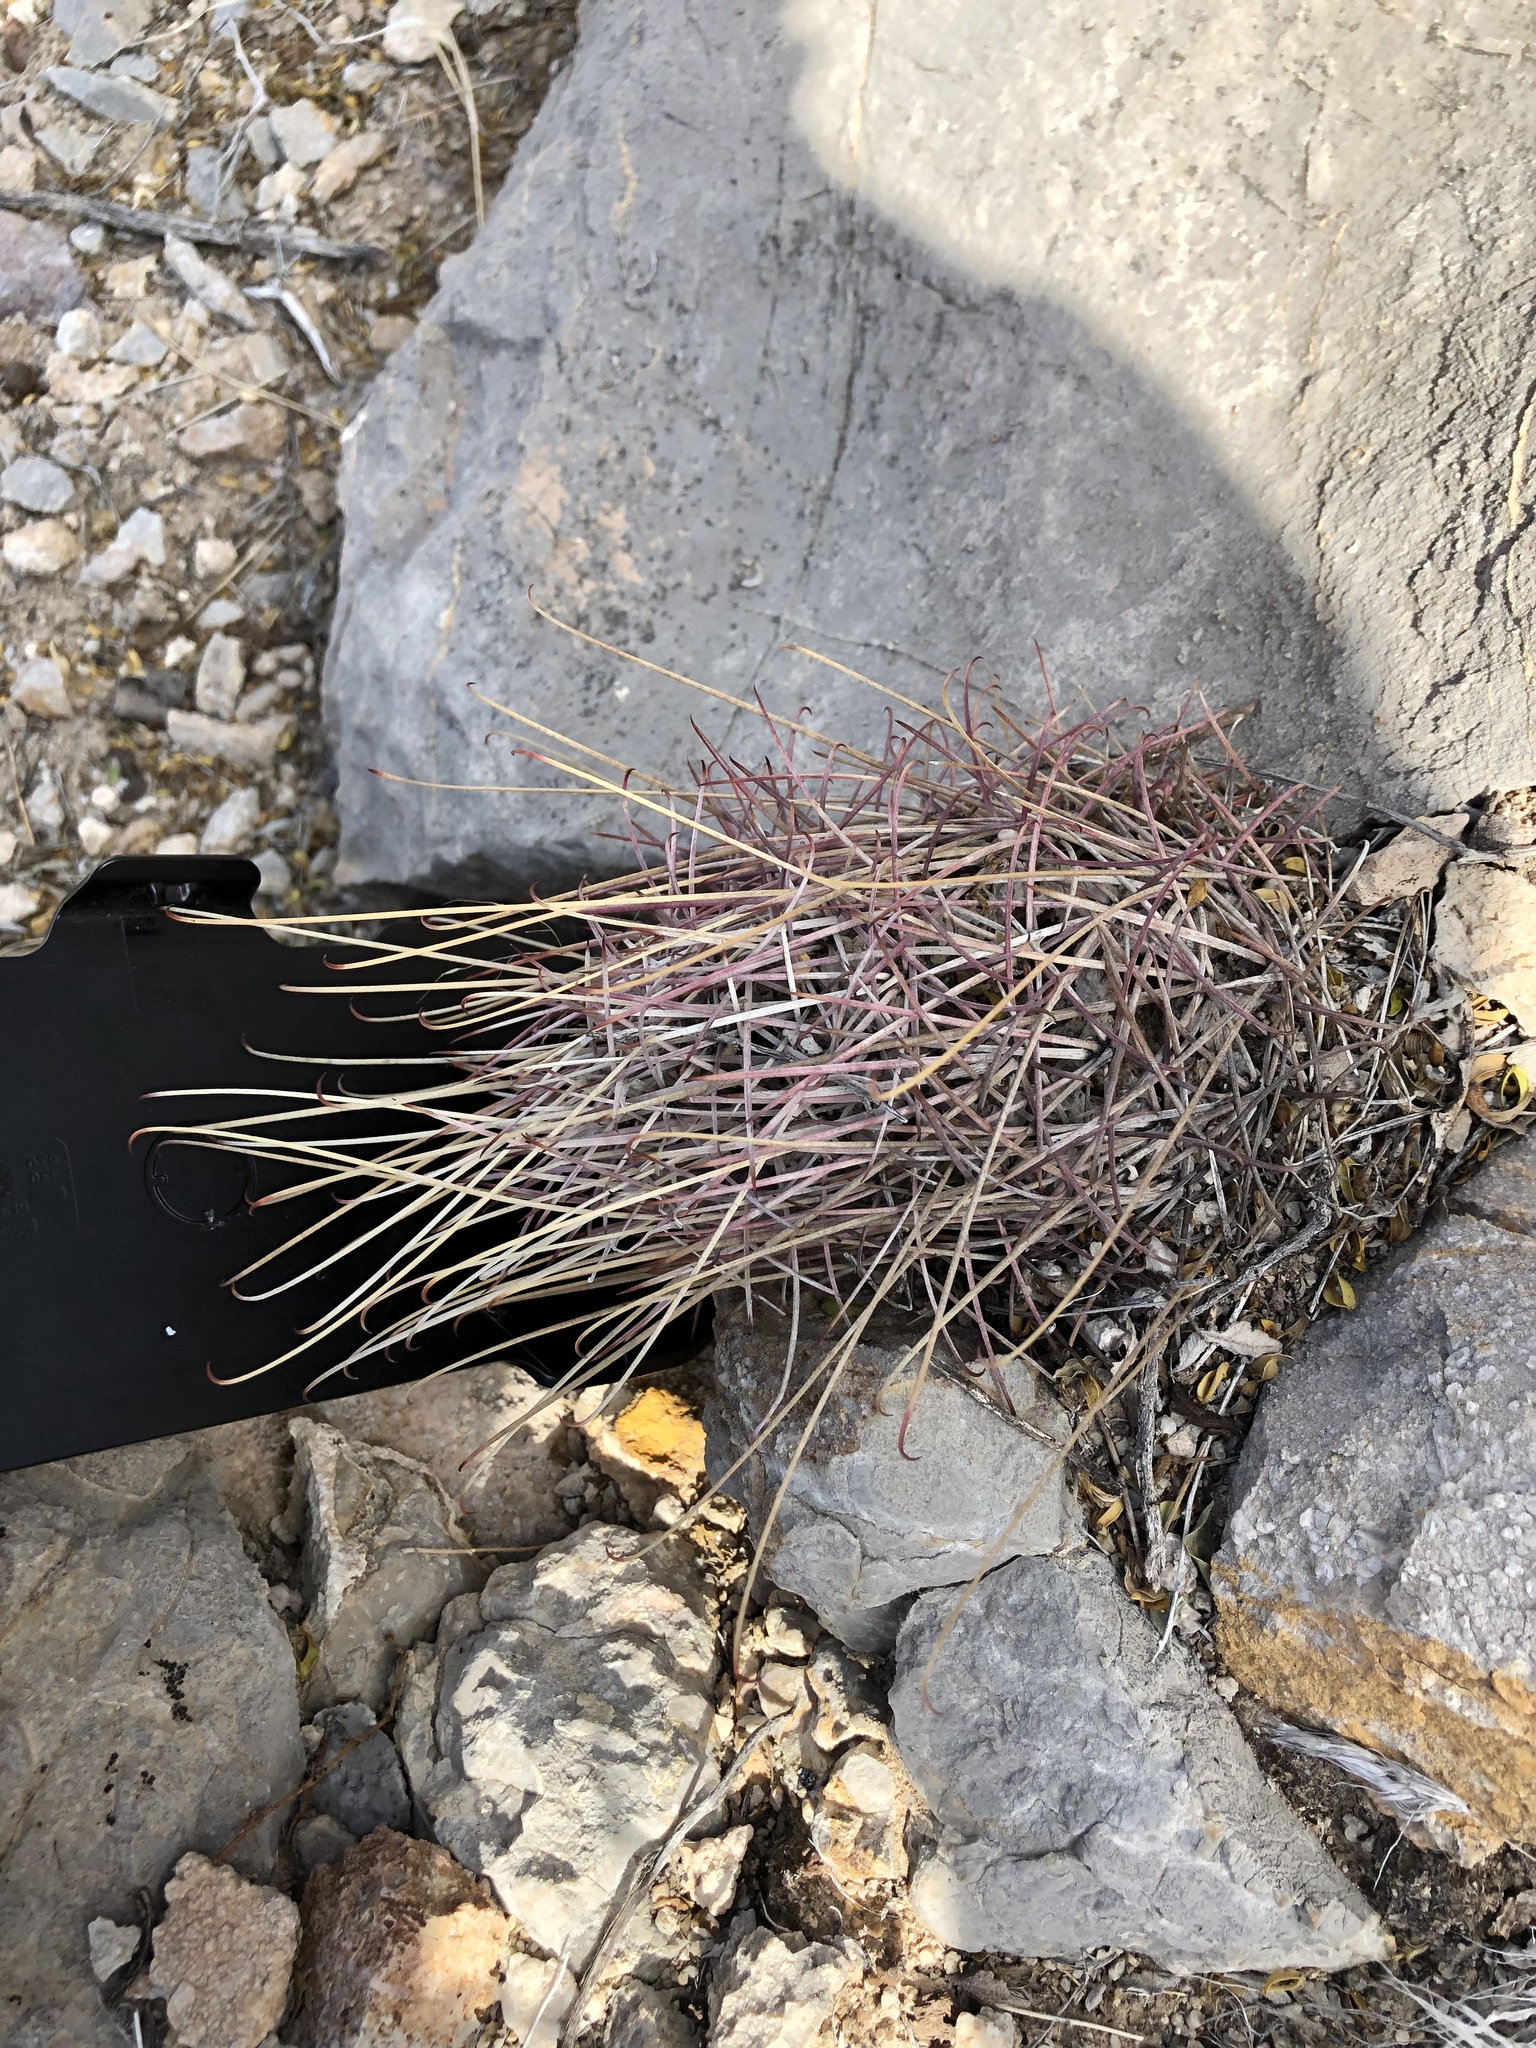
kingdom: Plantae
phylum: Tracheophyta
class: Magnoliopsida
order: Caryophyllales
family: Cactaceae
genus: Ferocactus
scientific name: Ferocactus uncinatus
